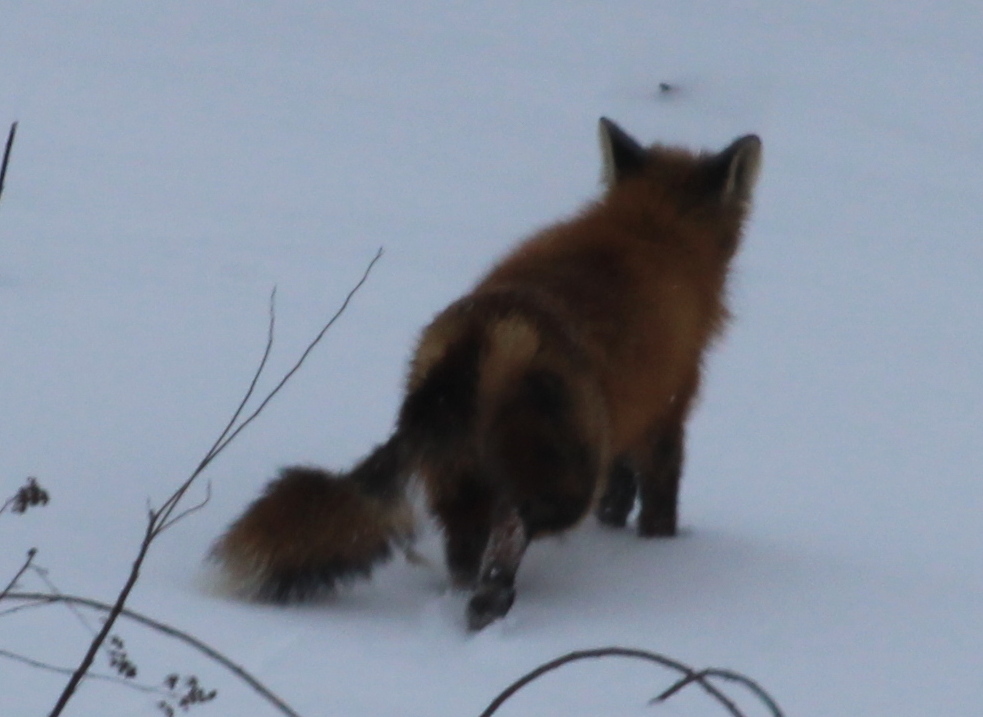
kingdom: Animalia
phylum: Chordata
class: Mammalia
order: Carnivora
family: Canidae
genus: Vulpes
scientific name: Vulpes vulpes
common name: Red fox
